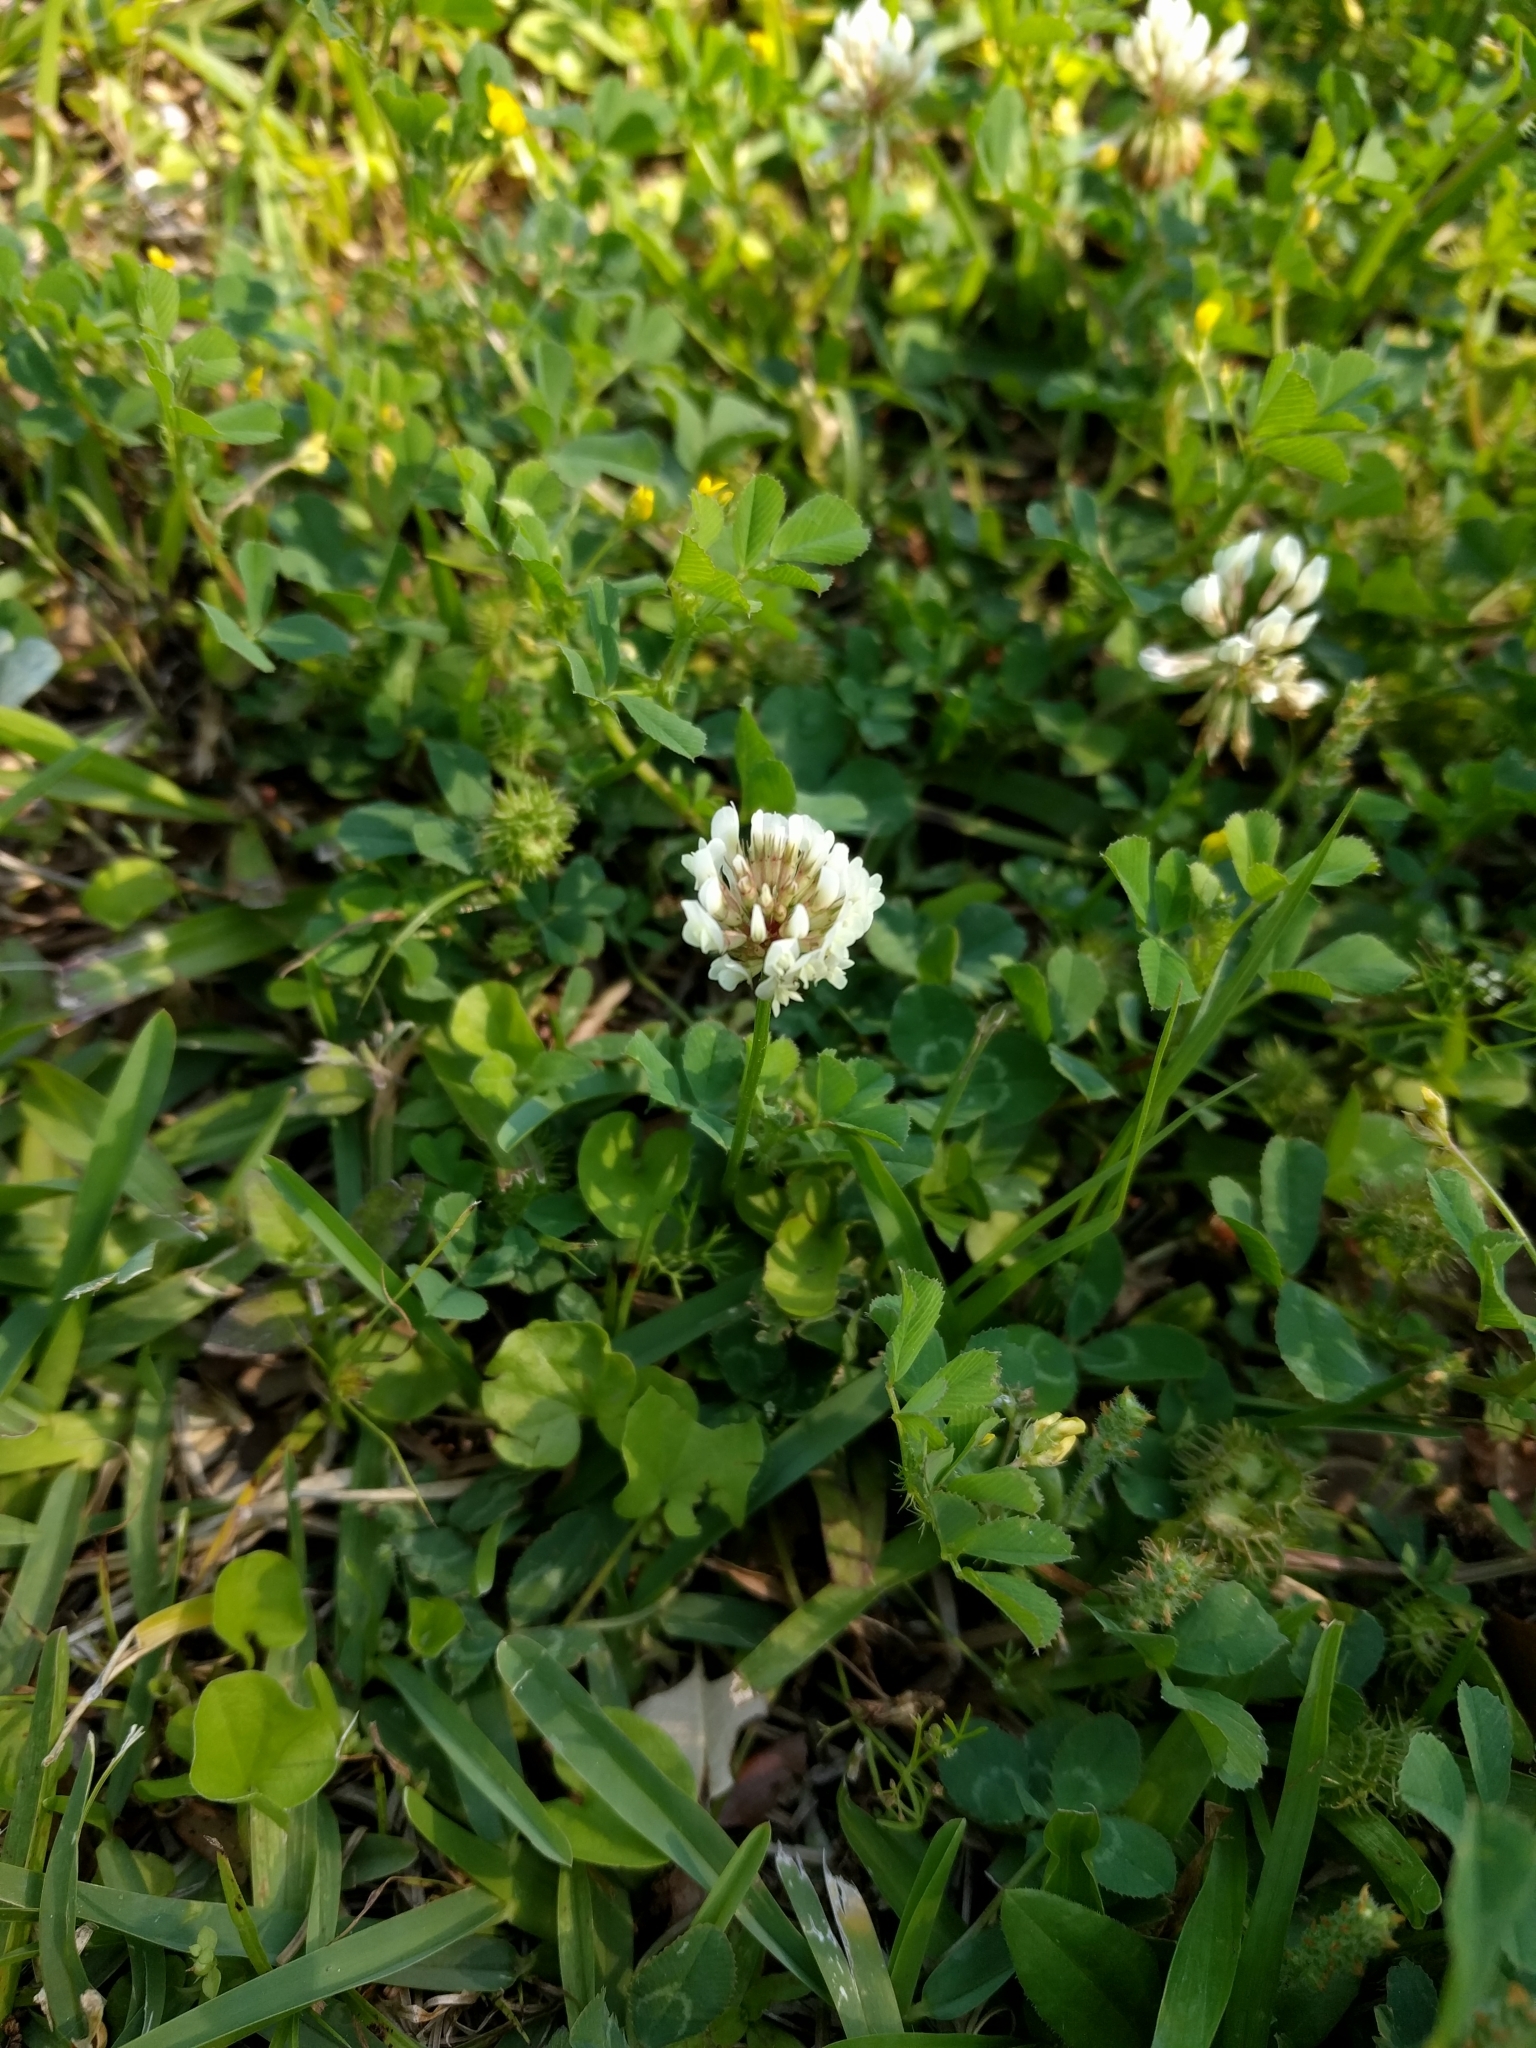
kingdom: Plantae
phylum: Tracheophyta
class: Magnoliopsida
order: Fabales
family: Fabaceae
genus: Trifolium
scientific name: Trifolium repens
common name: White clover
